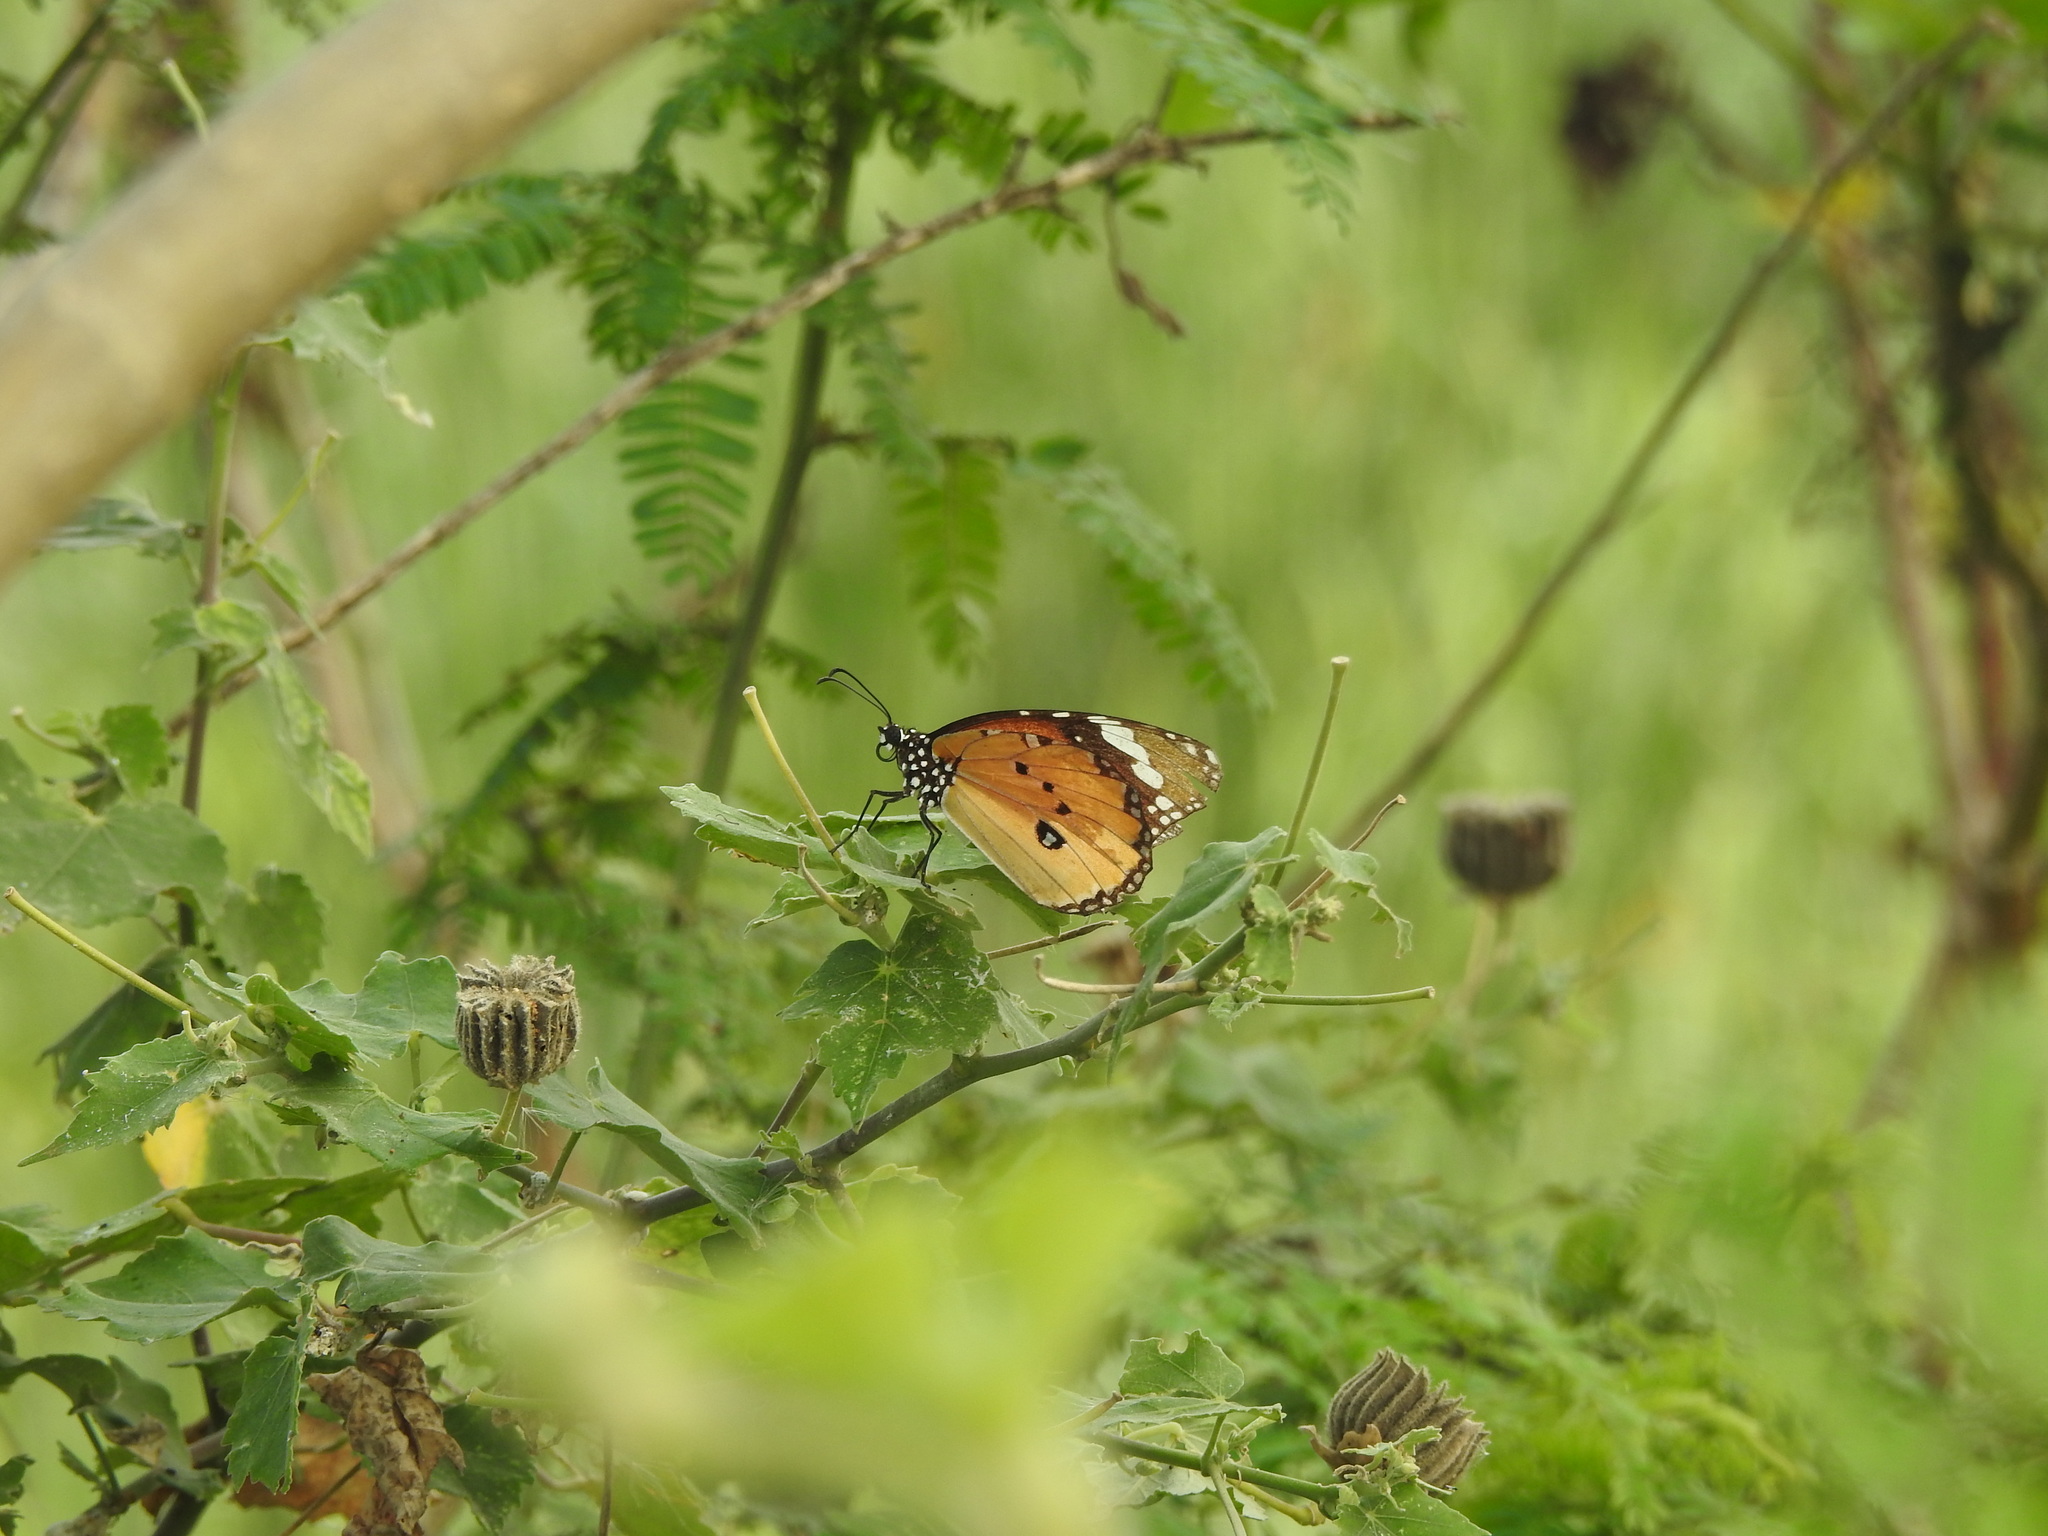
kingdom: Animalia
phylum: Arthropoda
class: Insecta
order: Lepidoptera
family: Nymphalidae
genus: Danaus
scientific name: Danaus chrysippus
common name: Plain tiger
